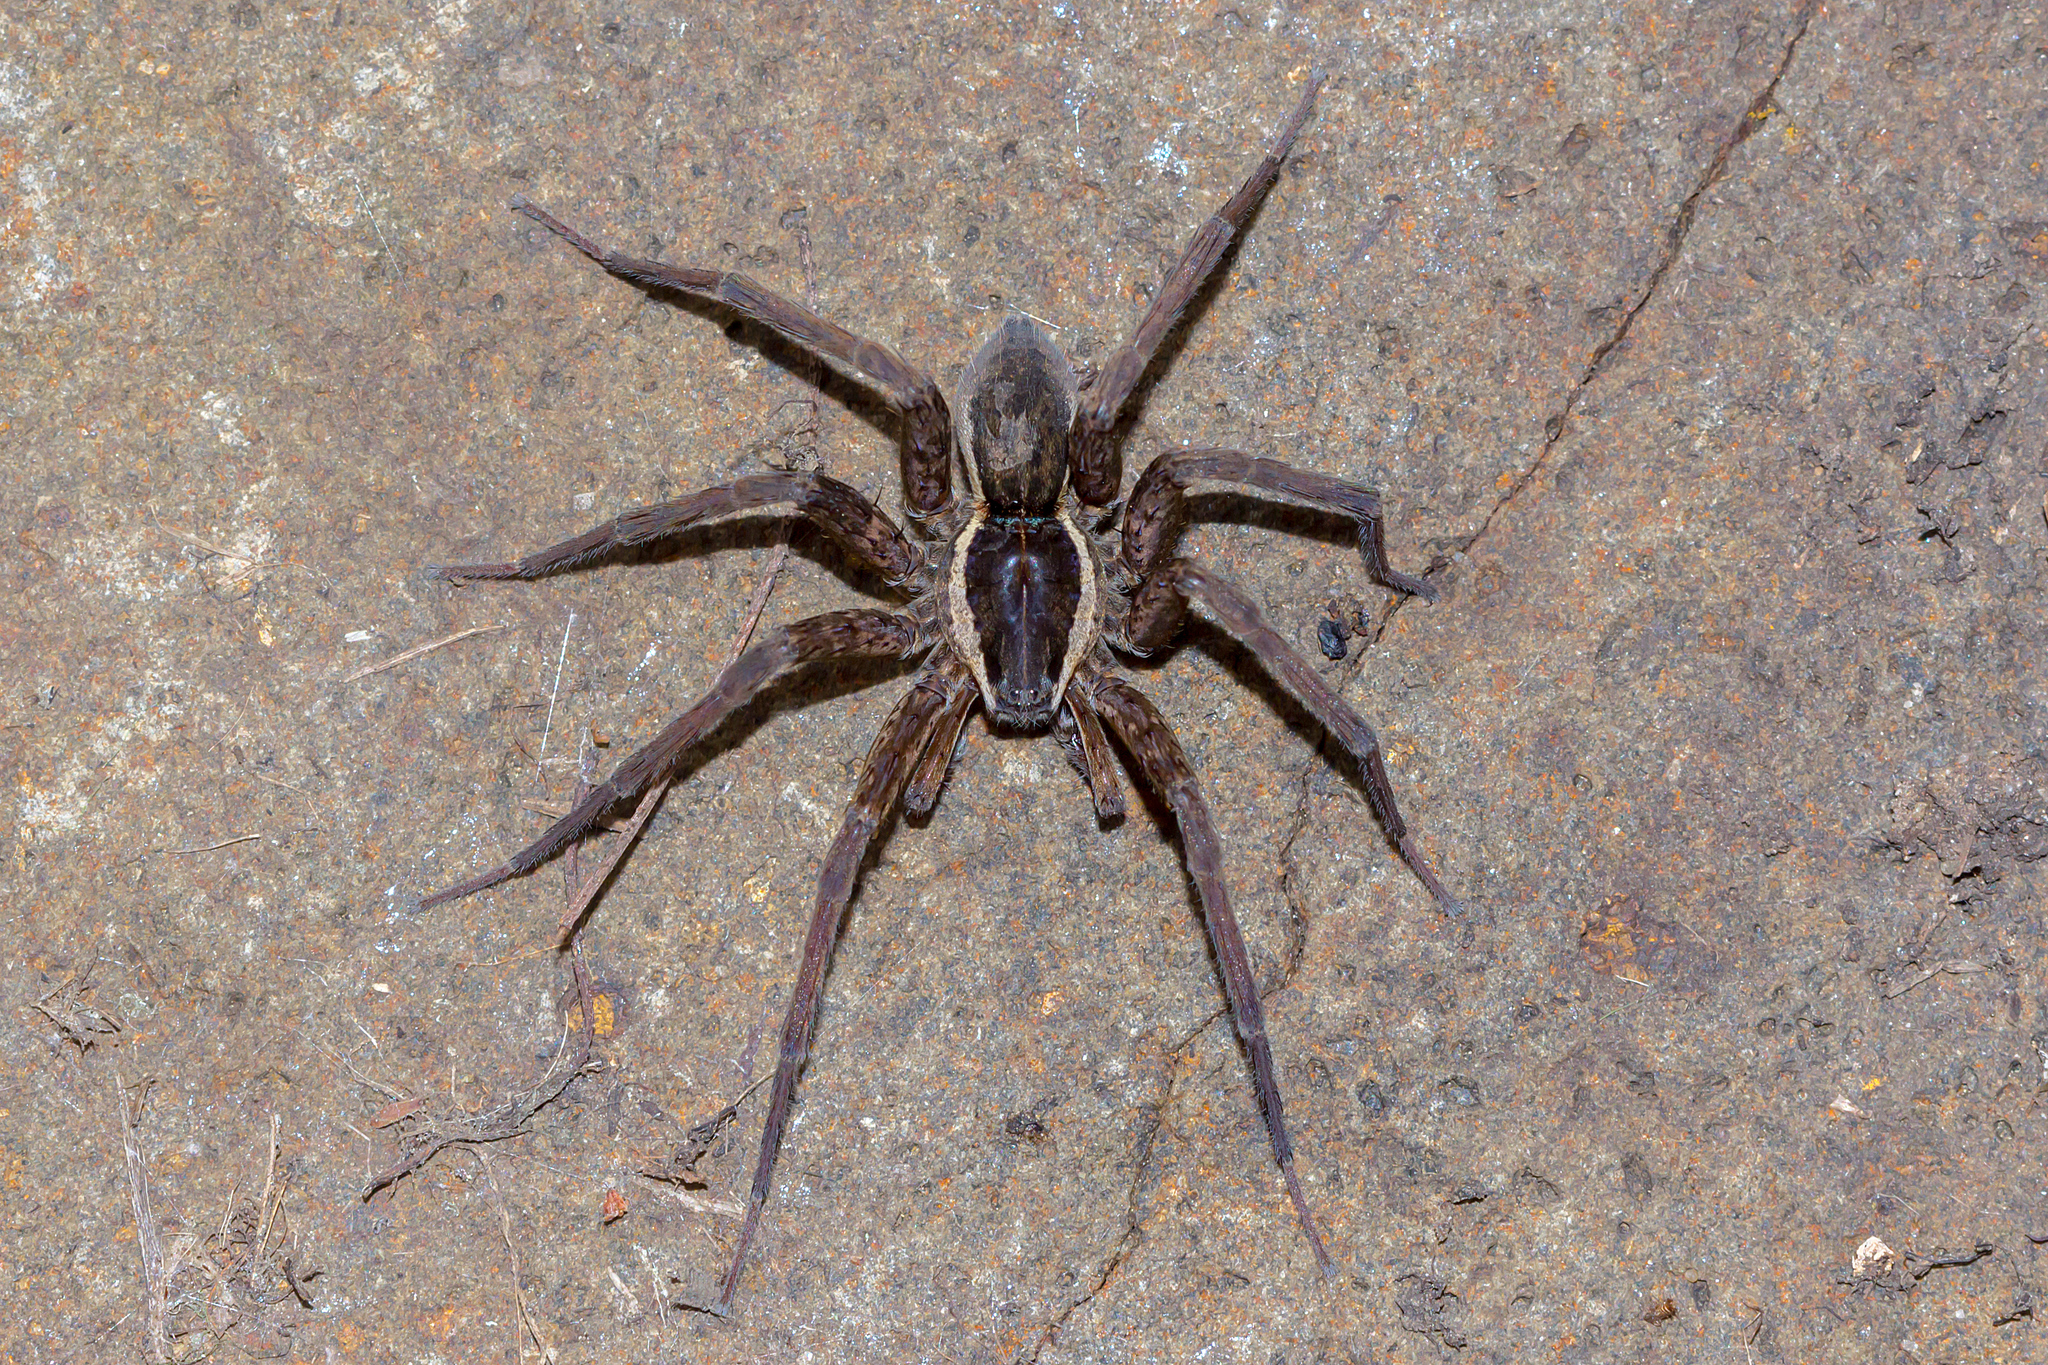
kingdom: Animalia
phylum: Arthropoda
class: Arachnida
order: Araneae
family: Pisauridae
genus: Dolomedes
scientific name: Dolomedes instabilis
